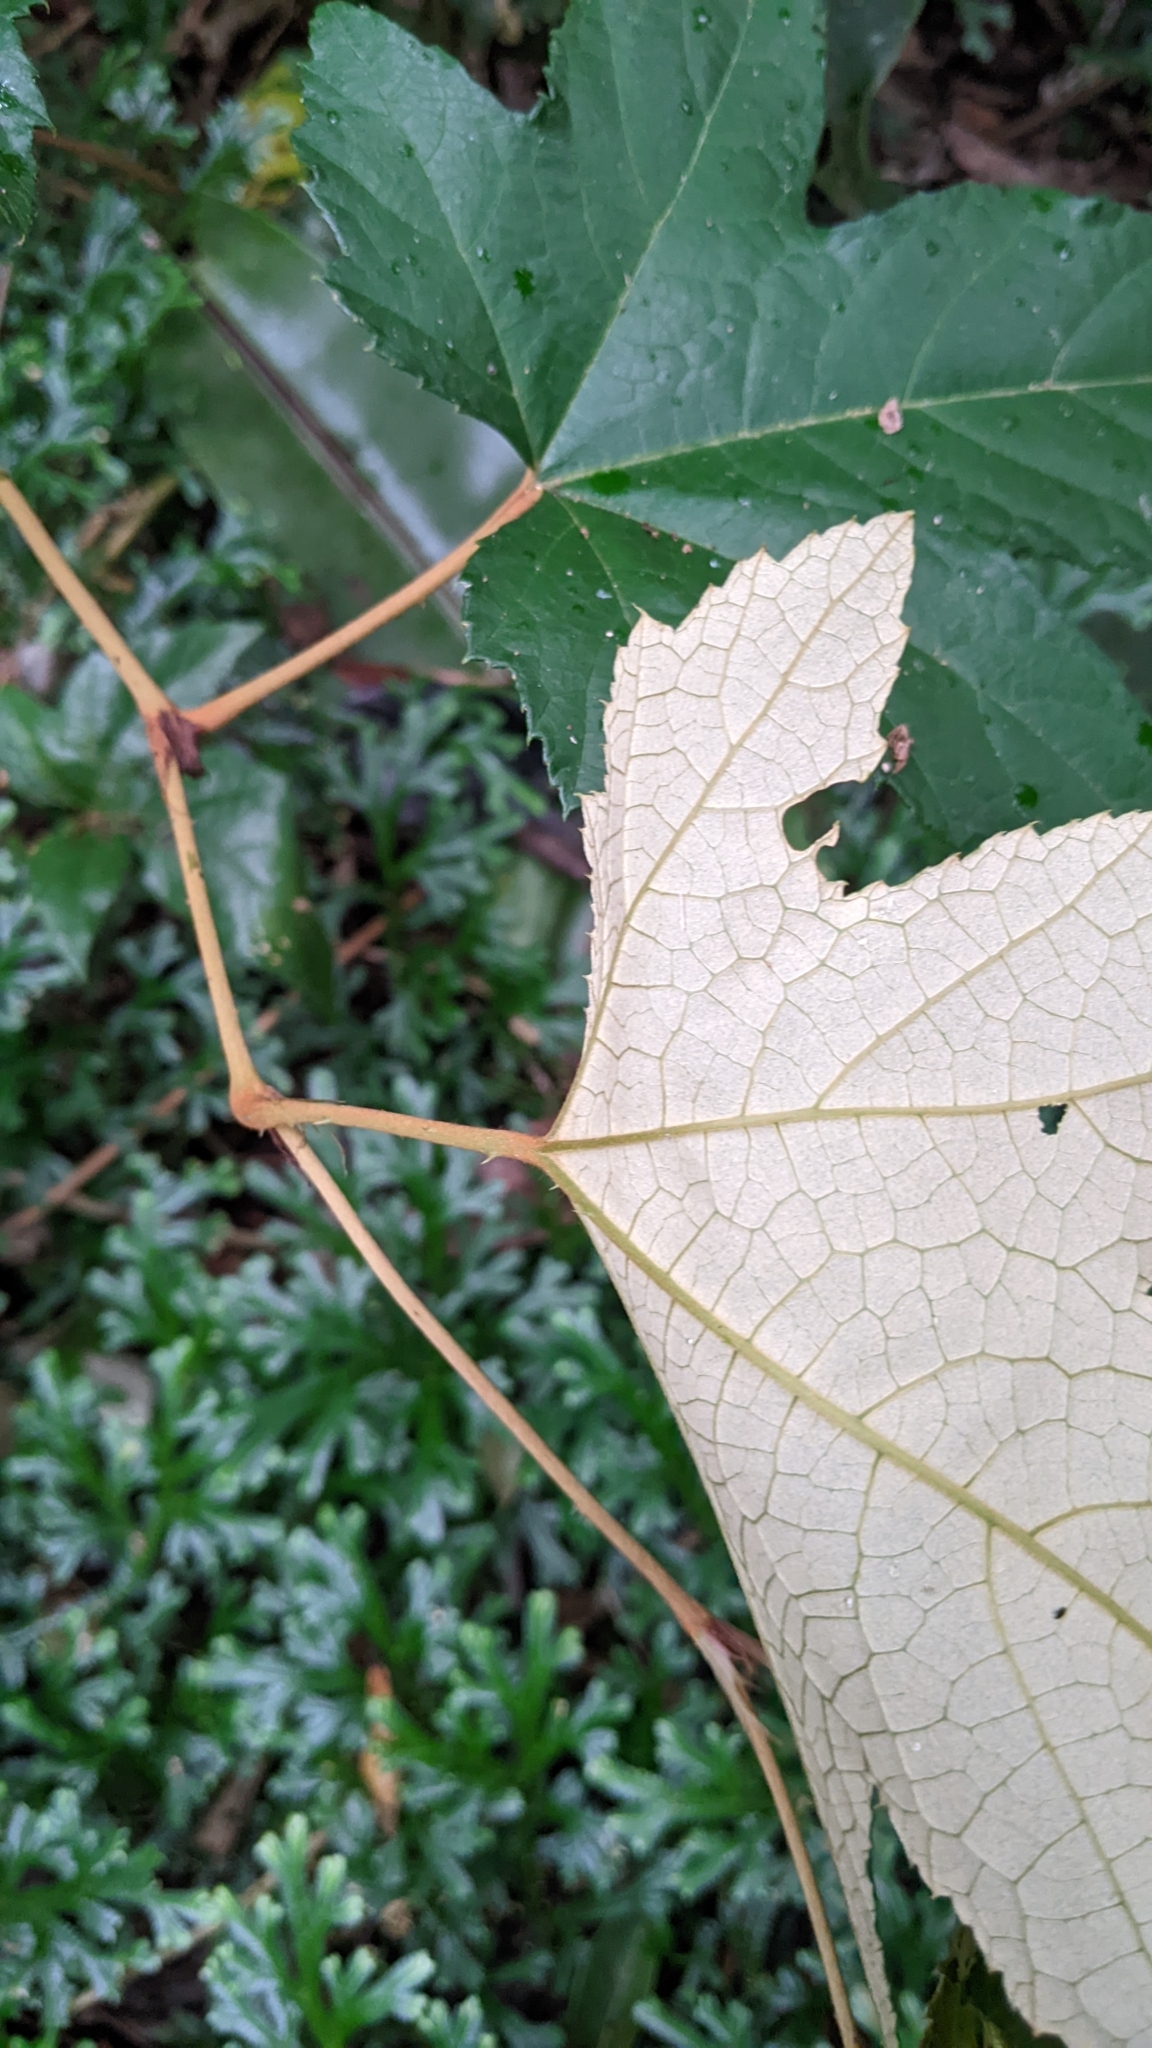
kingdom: Plantae
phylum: Tracheophyta
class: Magnoliopsida
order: Rosales
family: Rosaceae
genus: Rubus
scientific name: Rubus reflexus
